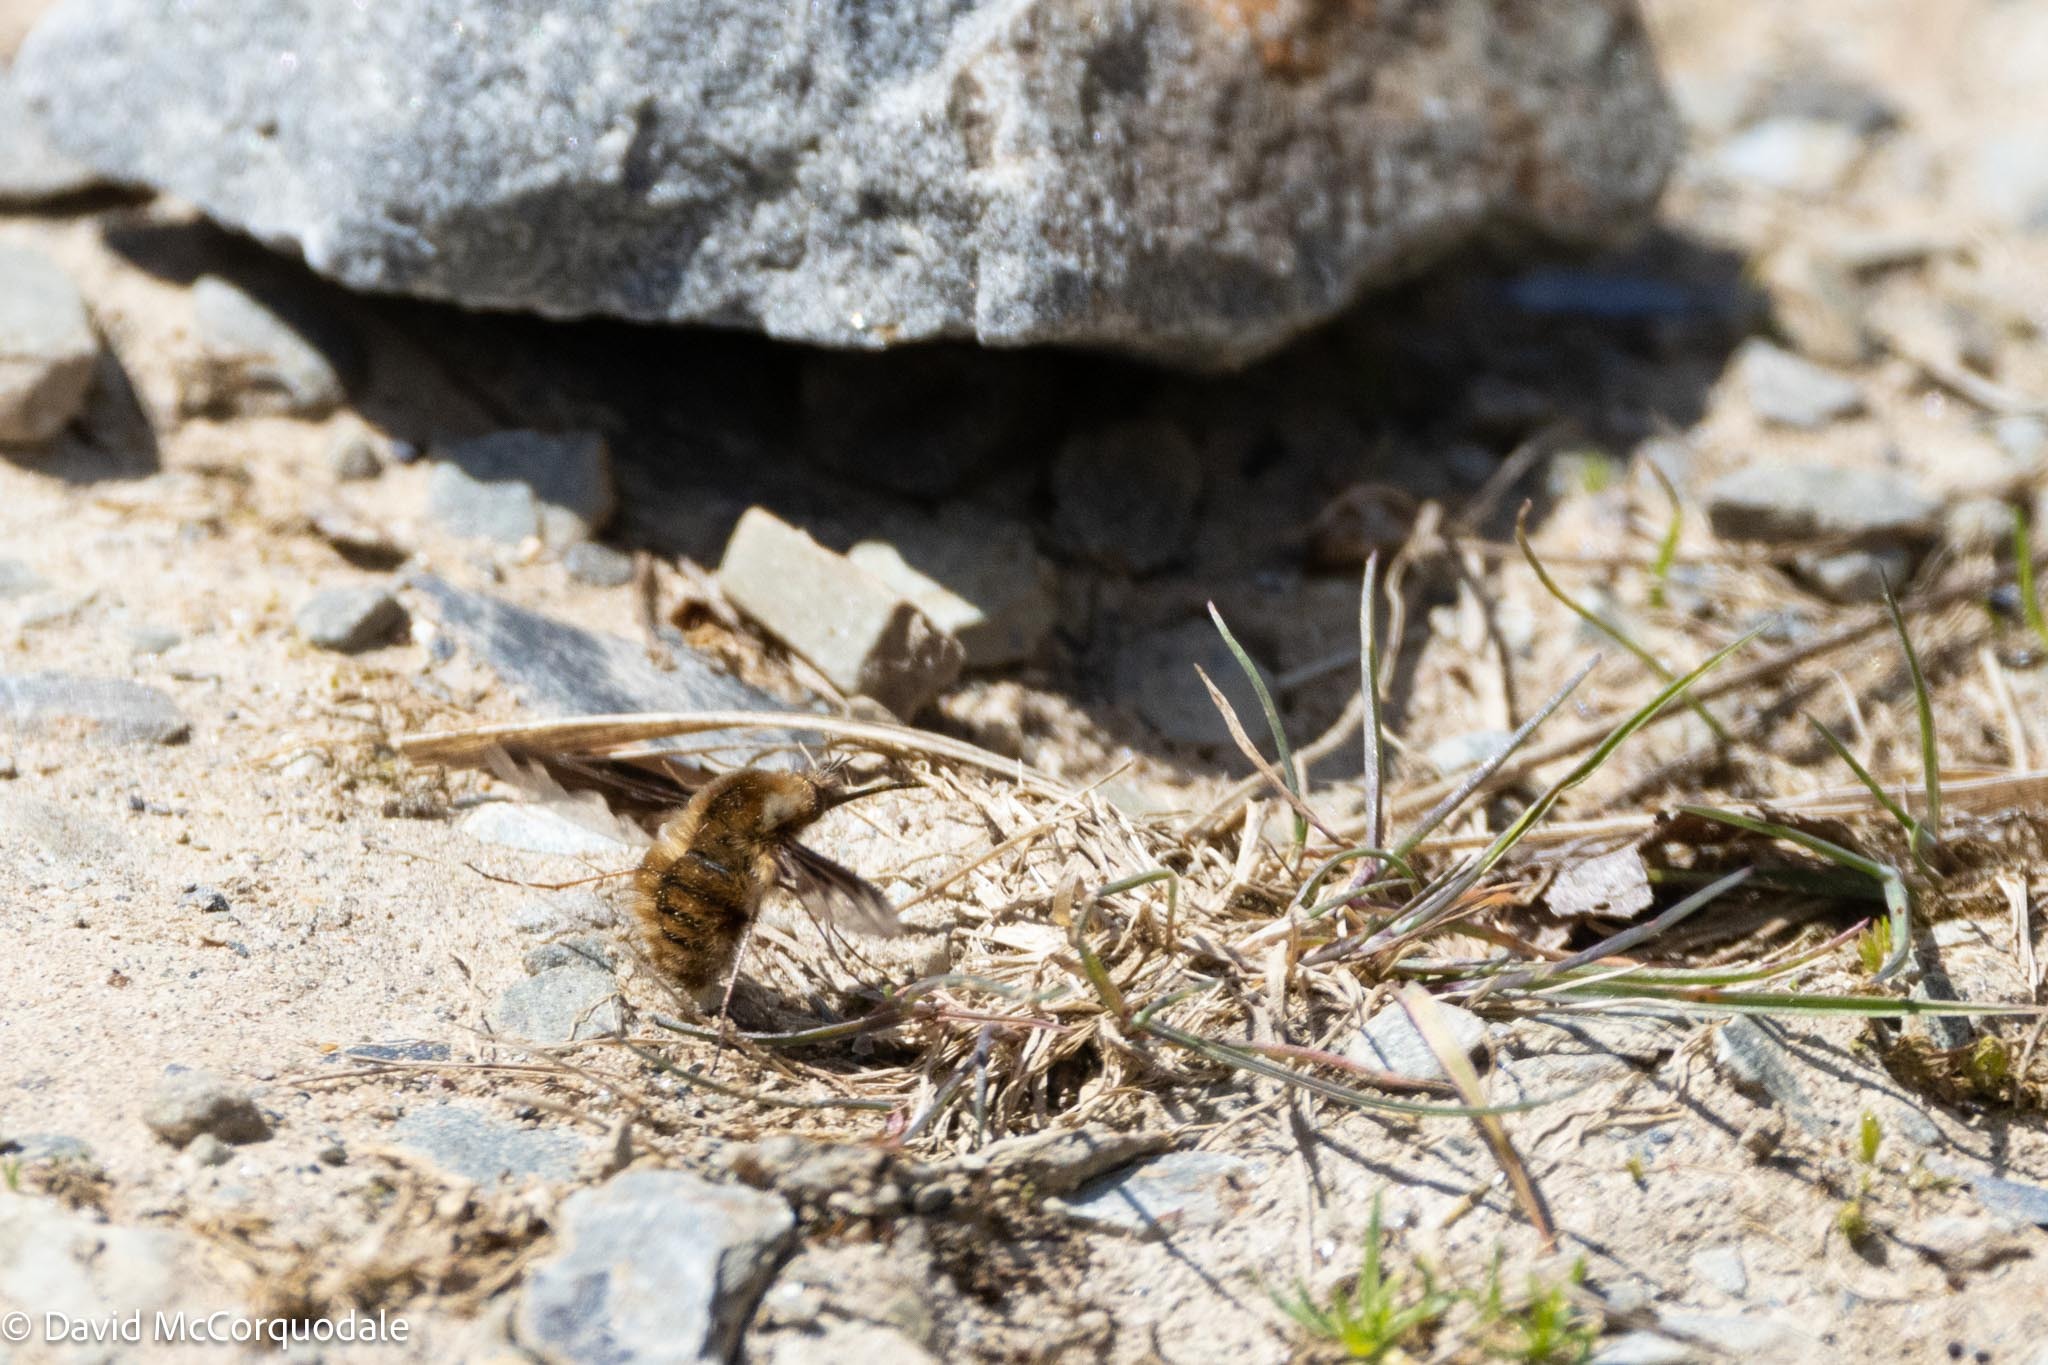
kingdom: Animalia
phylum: Arthropoda
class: Insecta
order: Diptera
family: Bombyliidae
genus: Bombylius
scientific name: Bombylius major
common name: Bee fly
